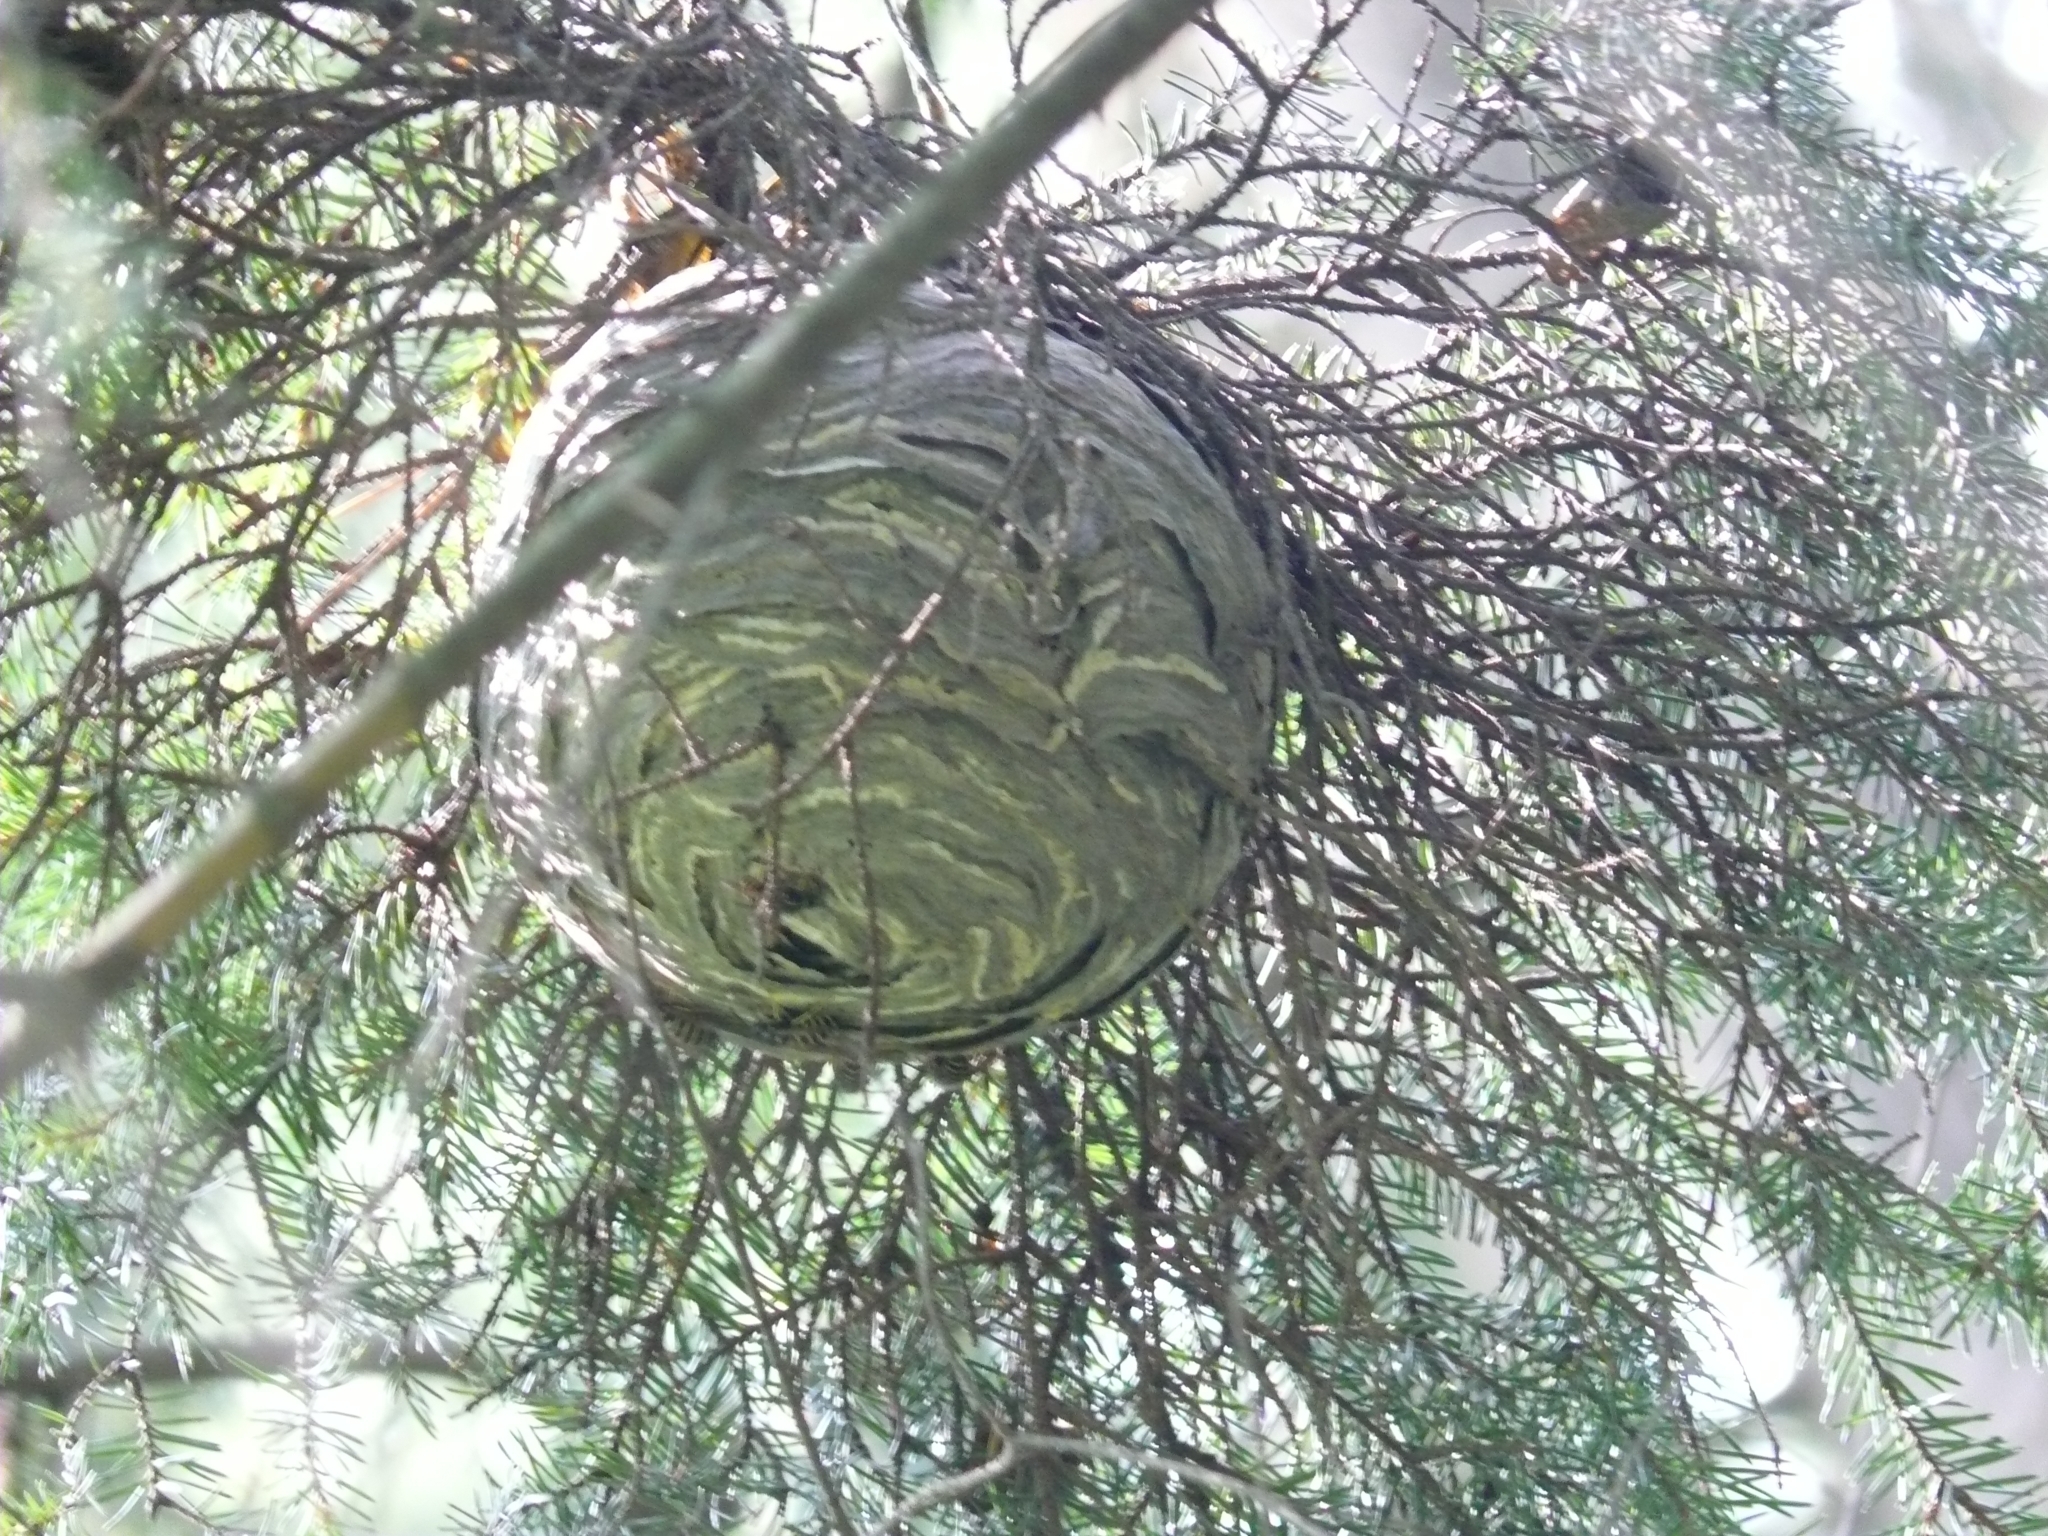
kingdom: Animalia
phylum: Arthropoda
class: Insecta
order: Hymenoptera
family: Vespidae
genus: Dolichovespula
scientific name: Dolichovespula media
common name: Median wasp
